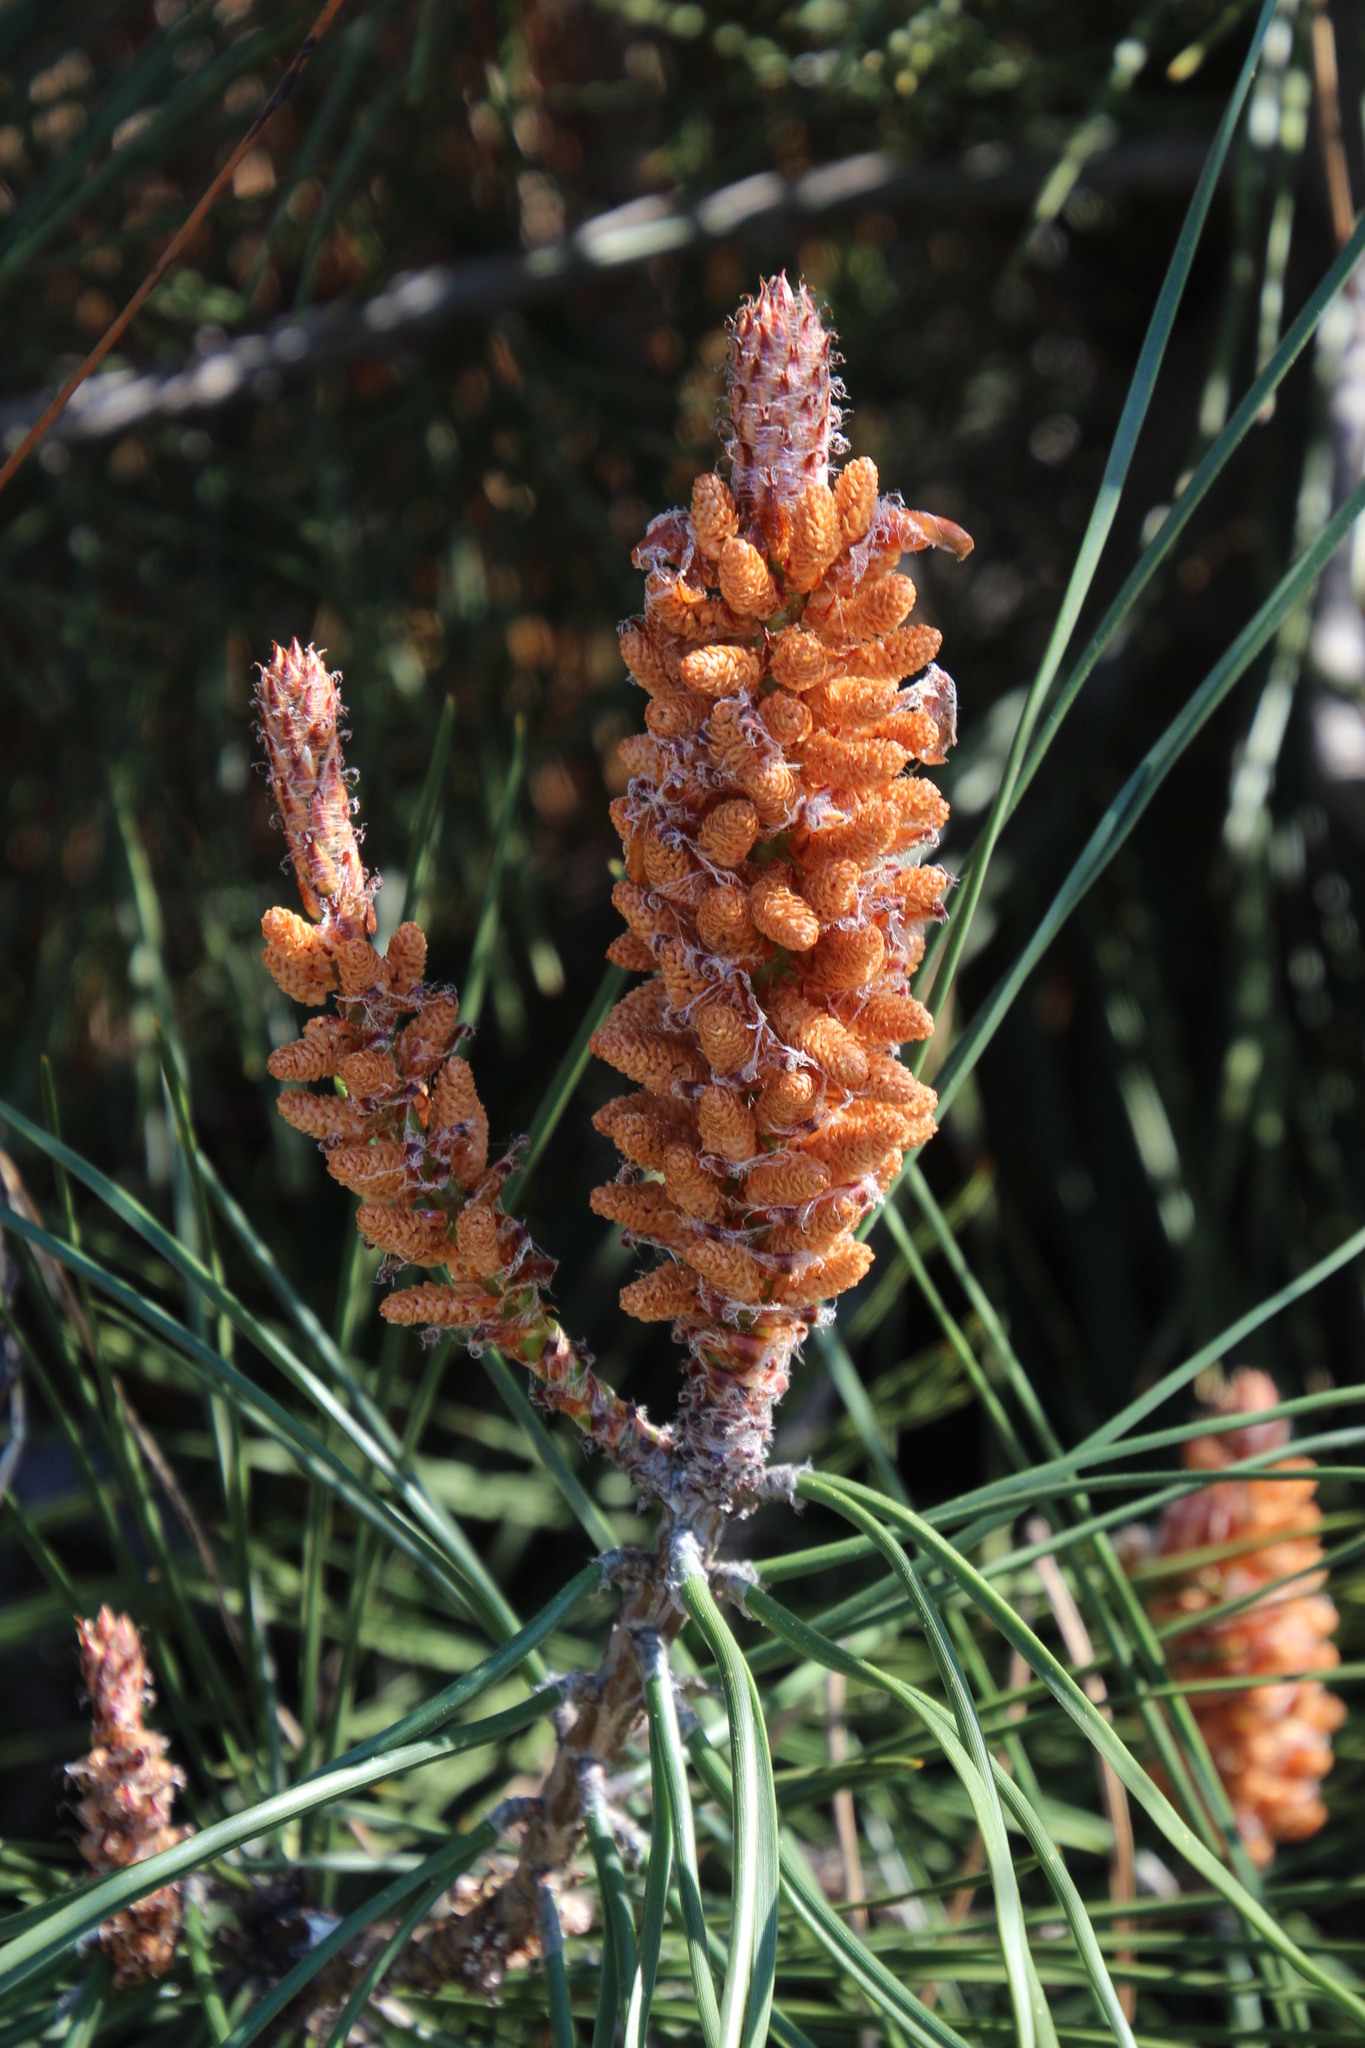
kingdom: Plantae
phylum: Tracheophyta
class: Pinopsida
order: Pinales
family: Pinaceae
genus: Pinus
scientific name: Pinus pinaster
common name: Maritime pine
